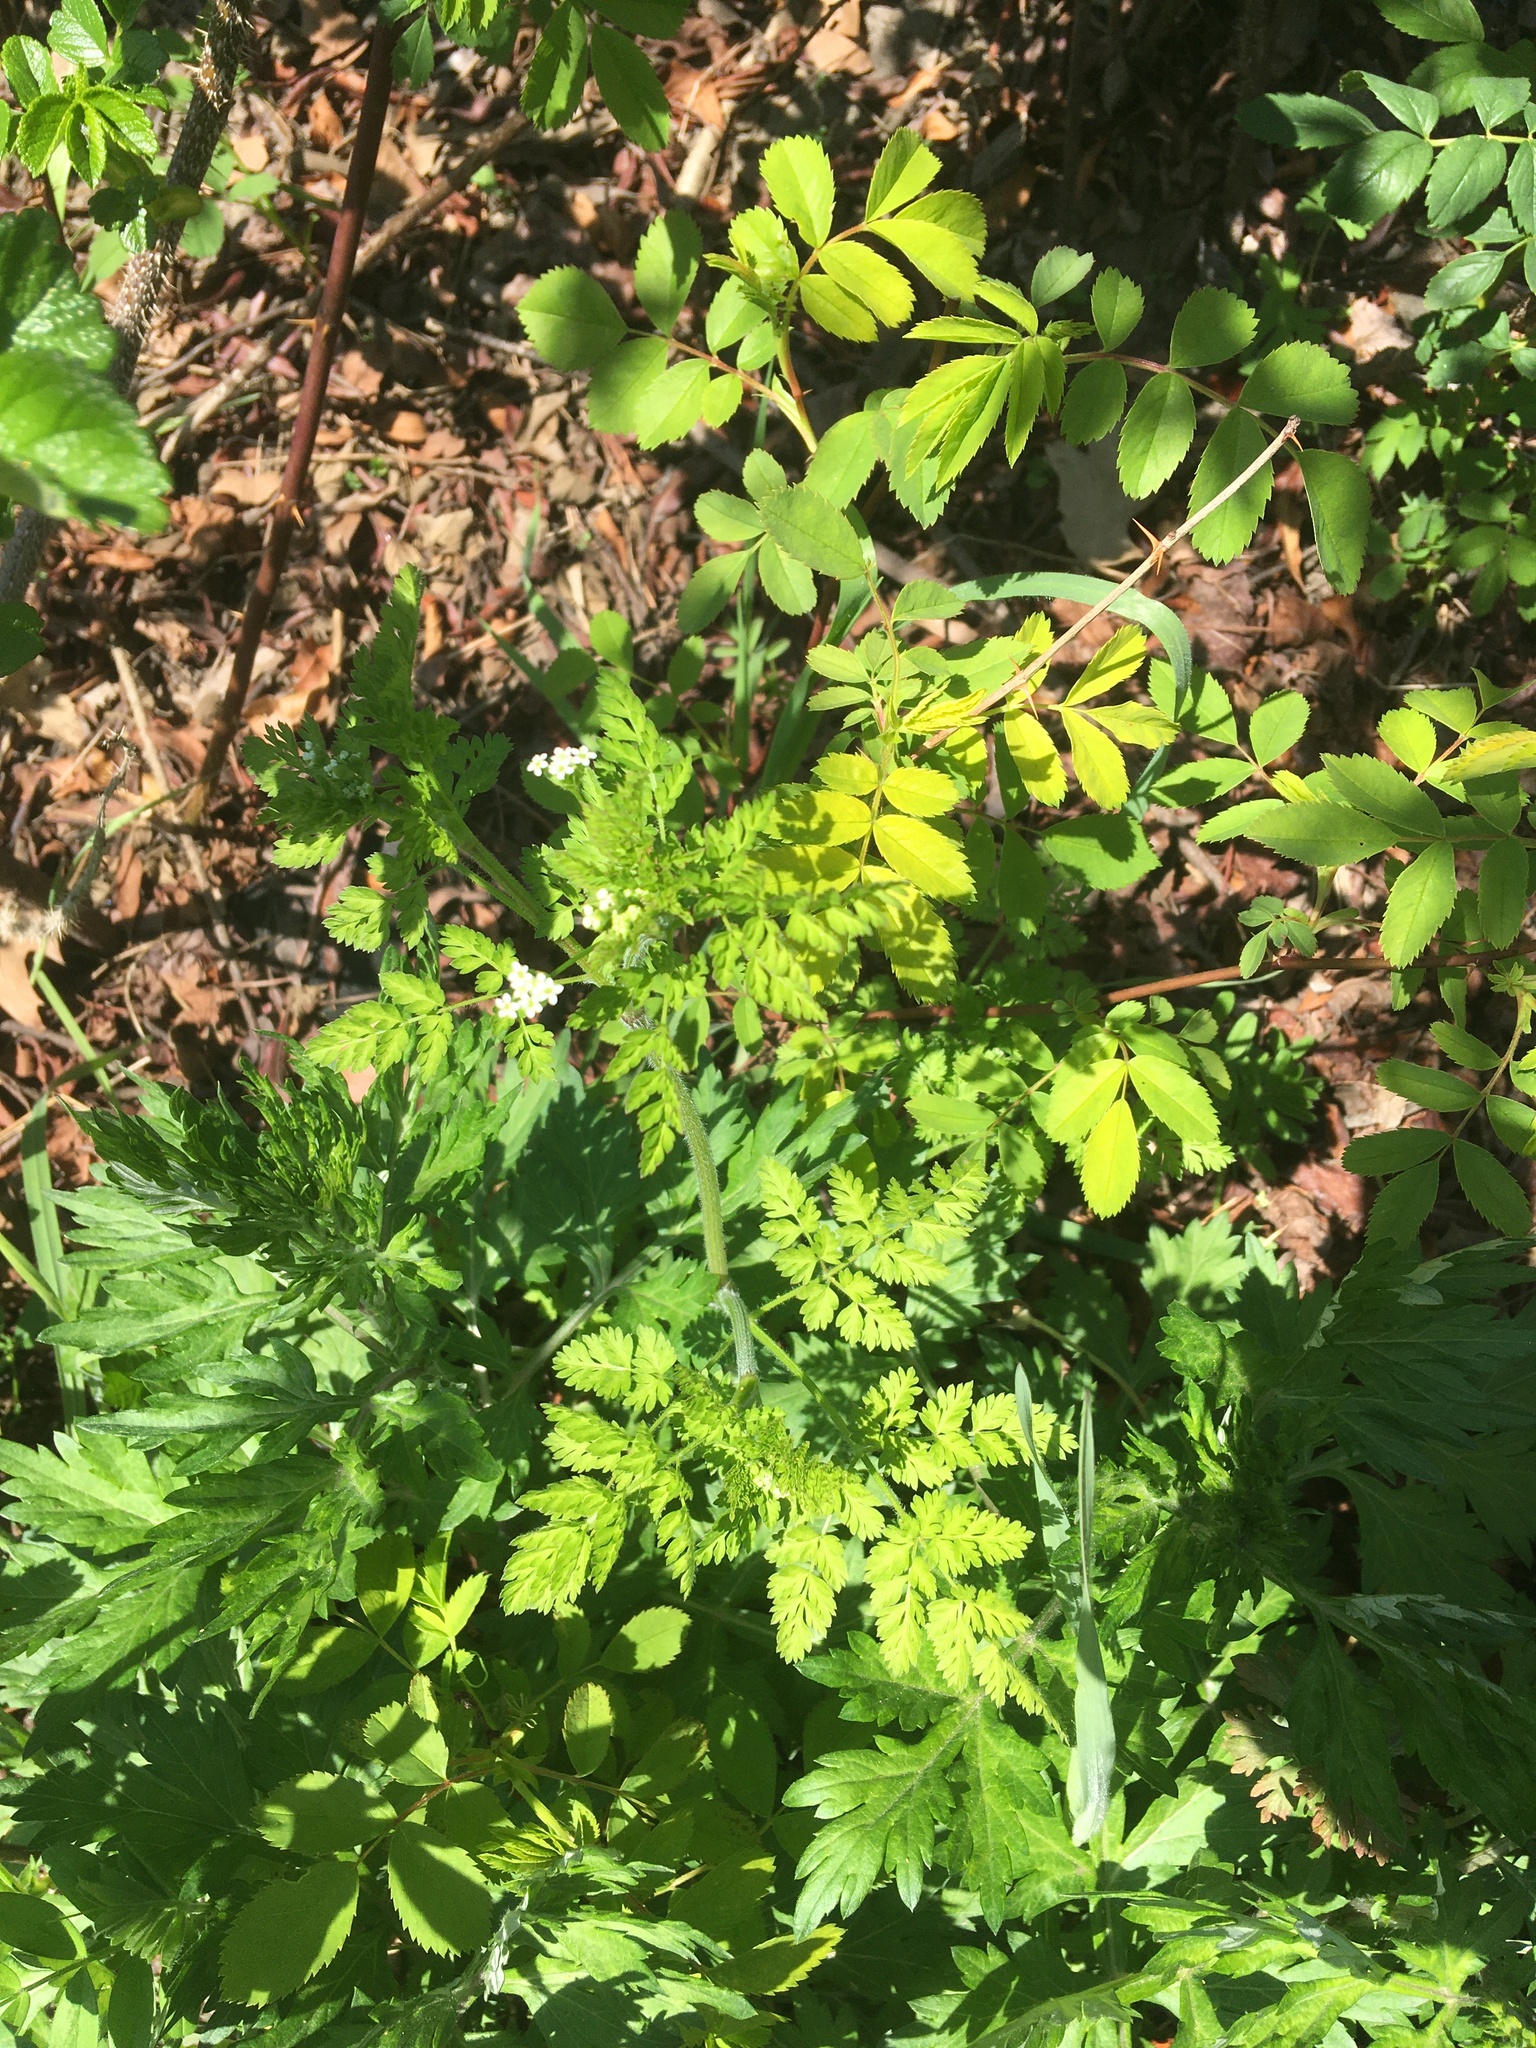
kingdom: Plantae
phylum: Tracheophyta
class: Magnoliopsida
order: Apiales
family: Apiaceae
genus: Chaerophyllum
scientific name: Chaerophyllum tainturieri
